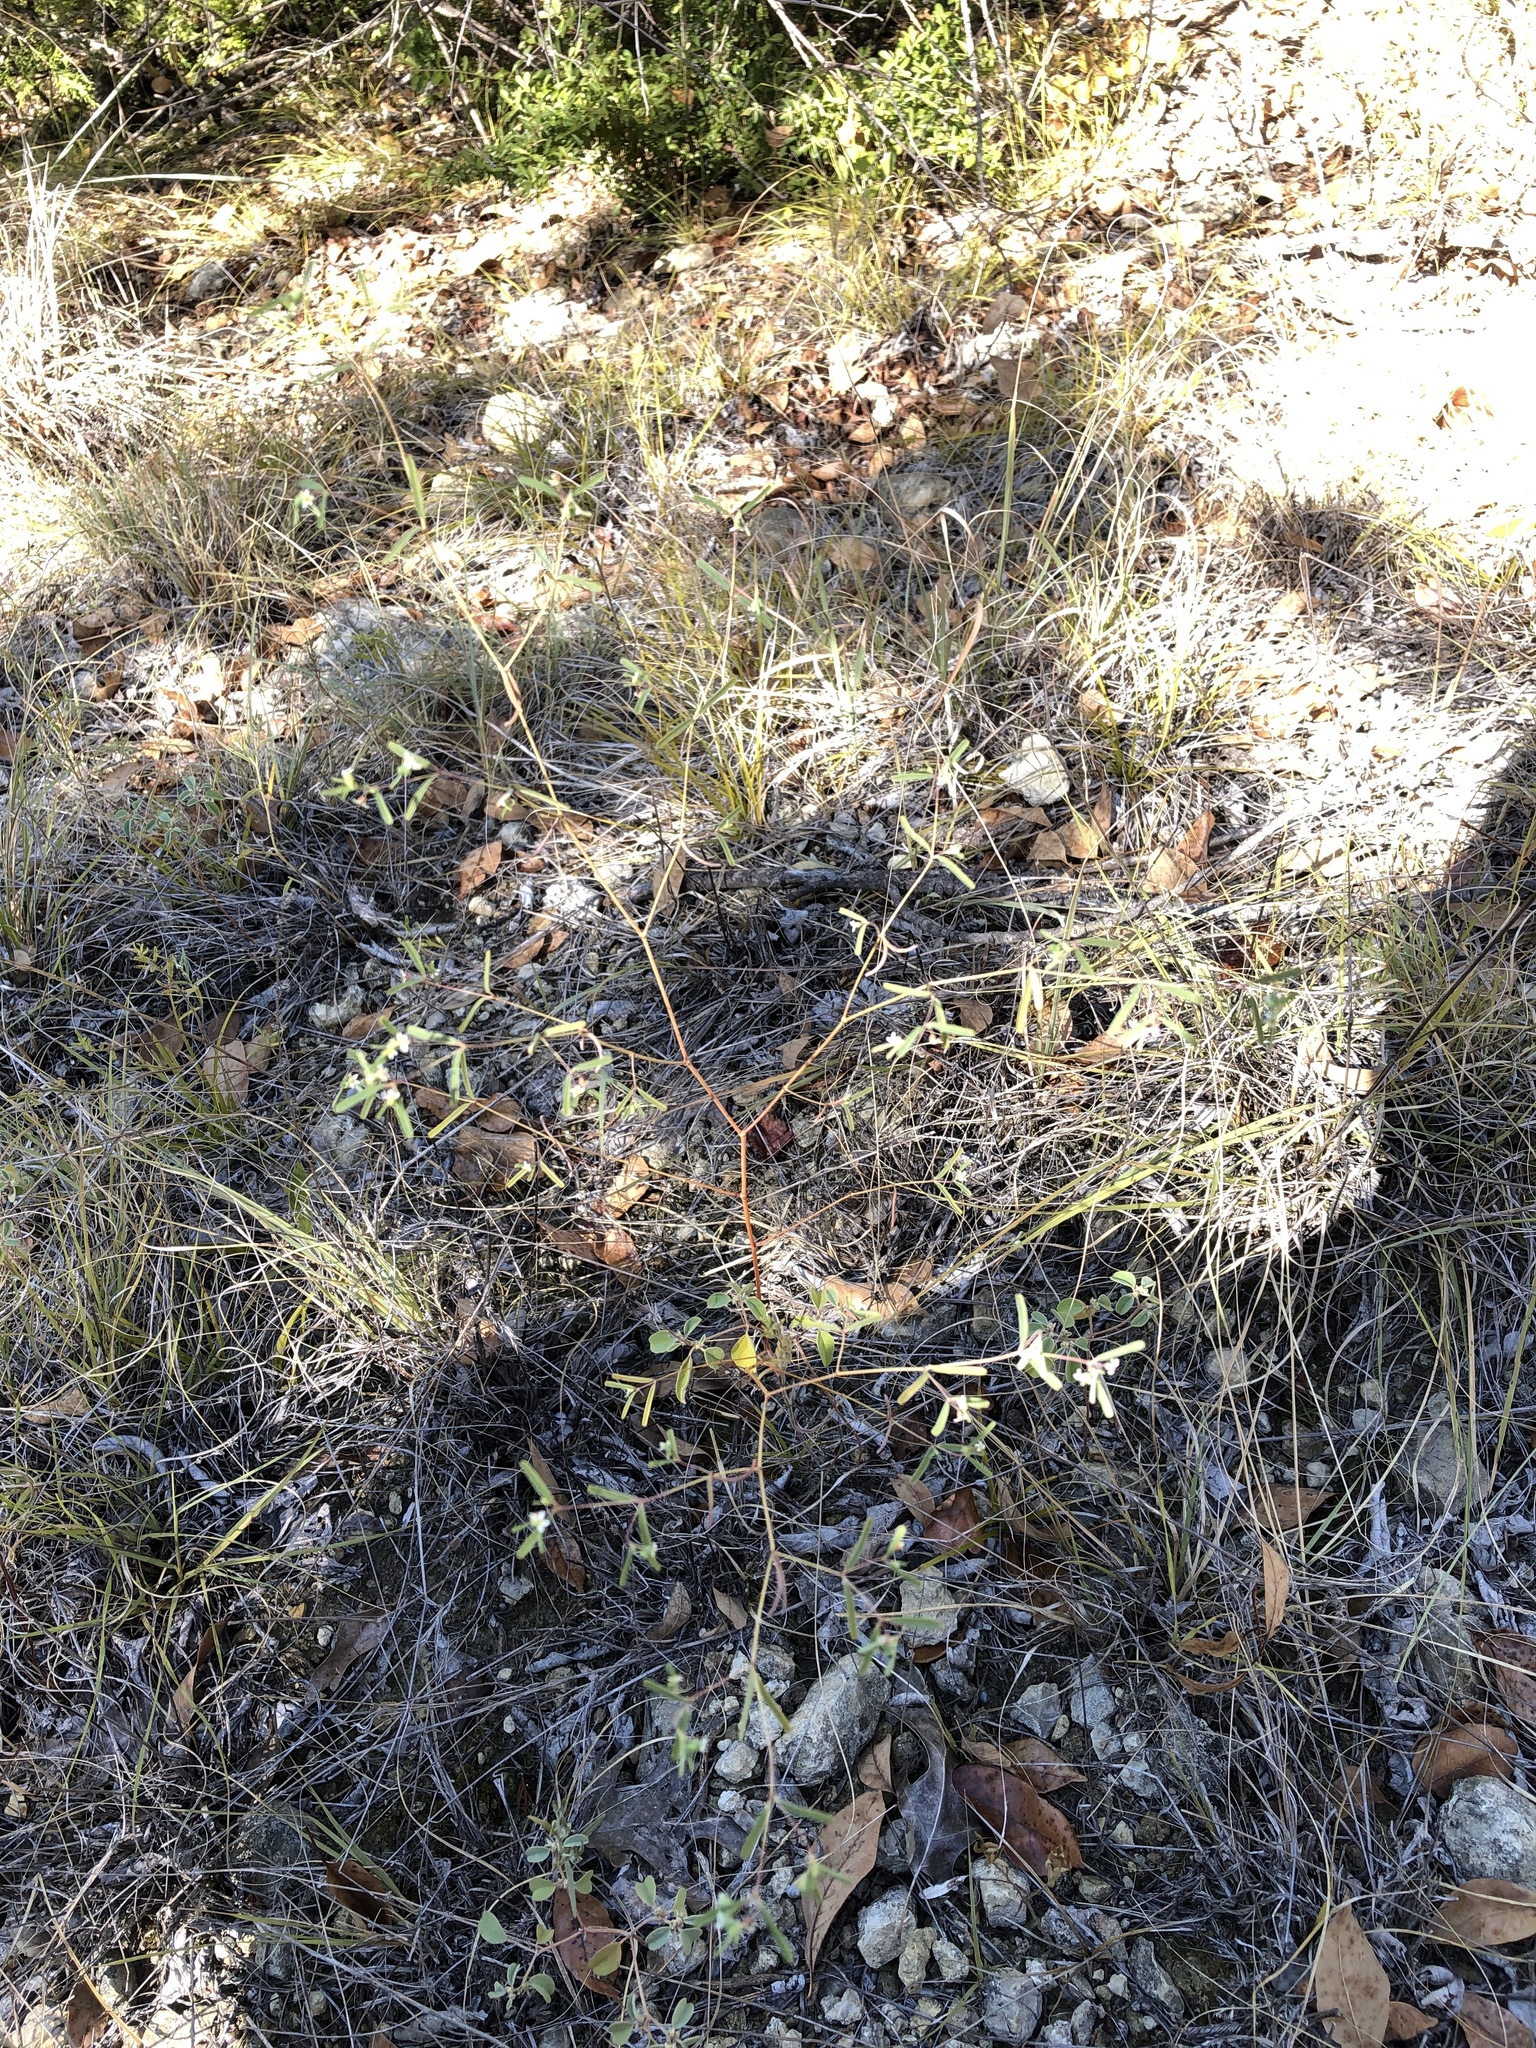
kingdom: Plantae
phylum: Tracheophyta
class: Magnoliopsida
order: Malpighiales
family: Euphorbiaceae
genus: Euphorbia
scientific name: Euphorbia missurica
